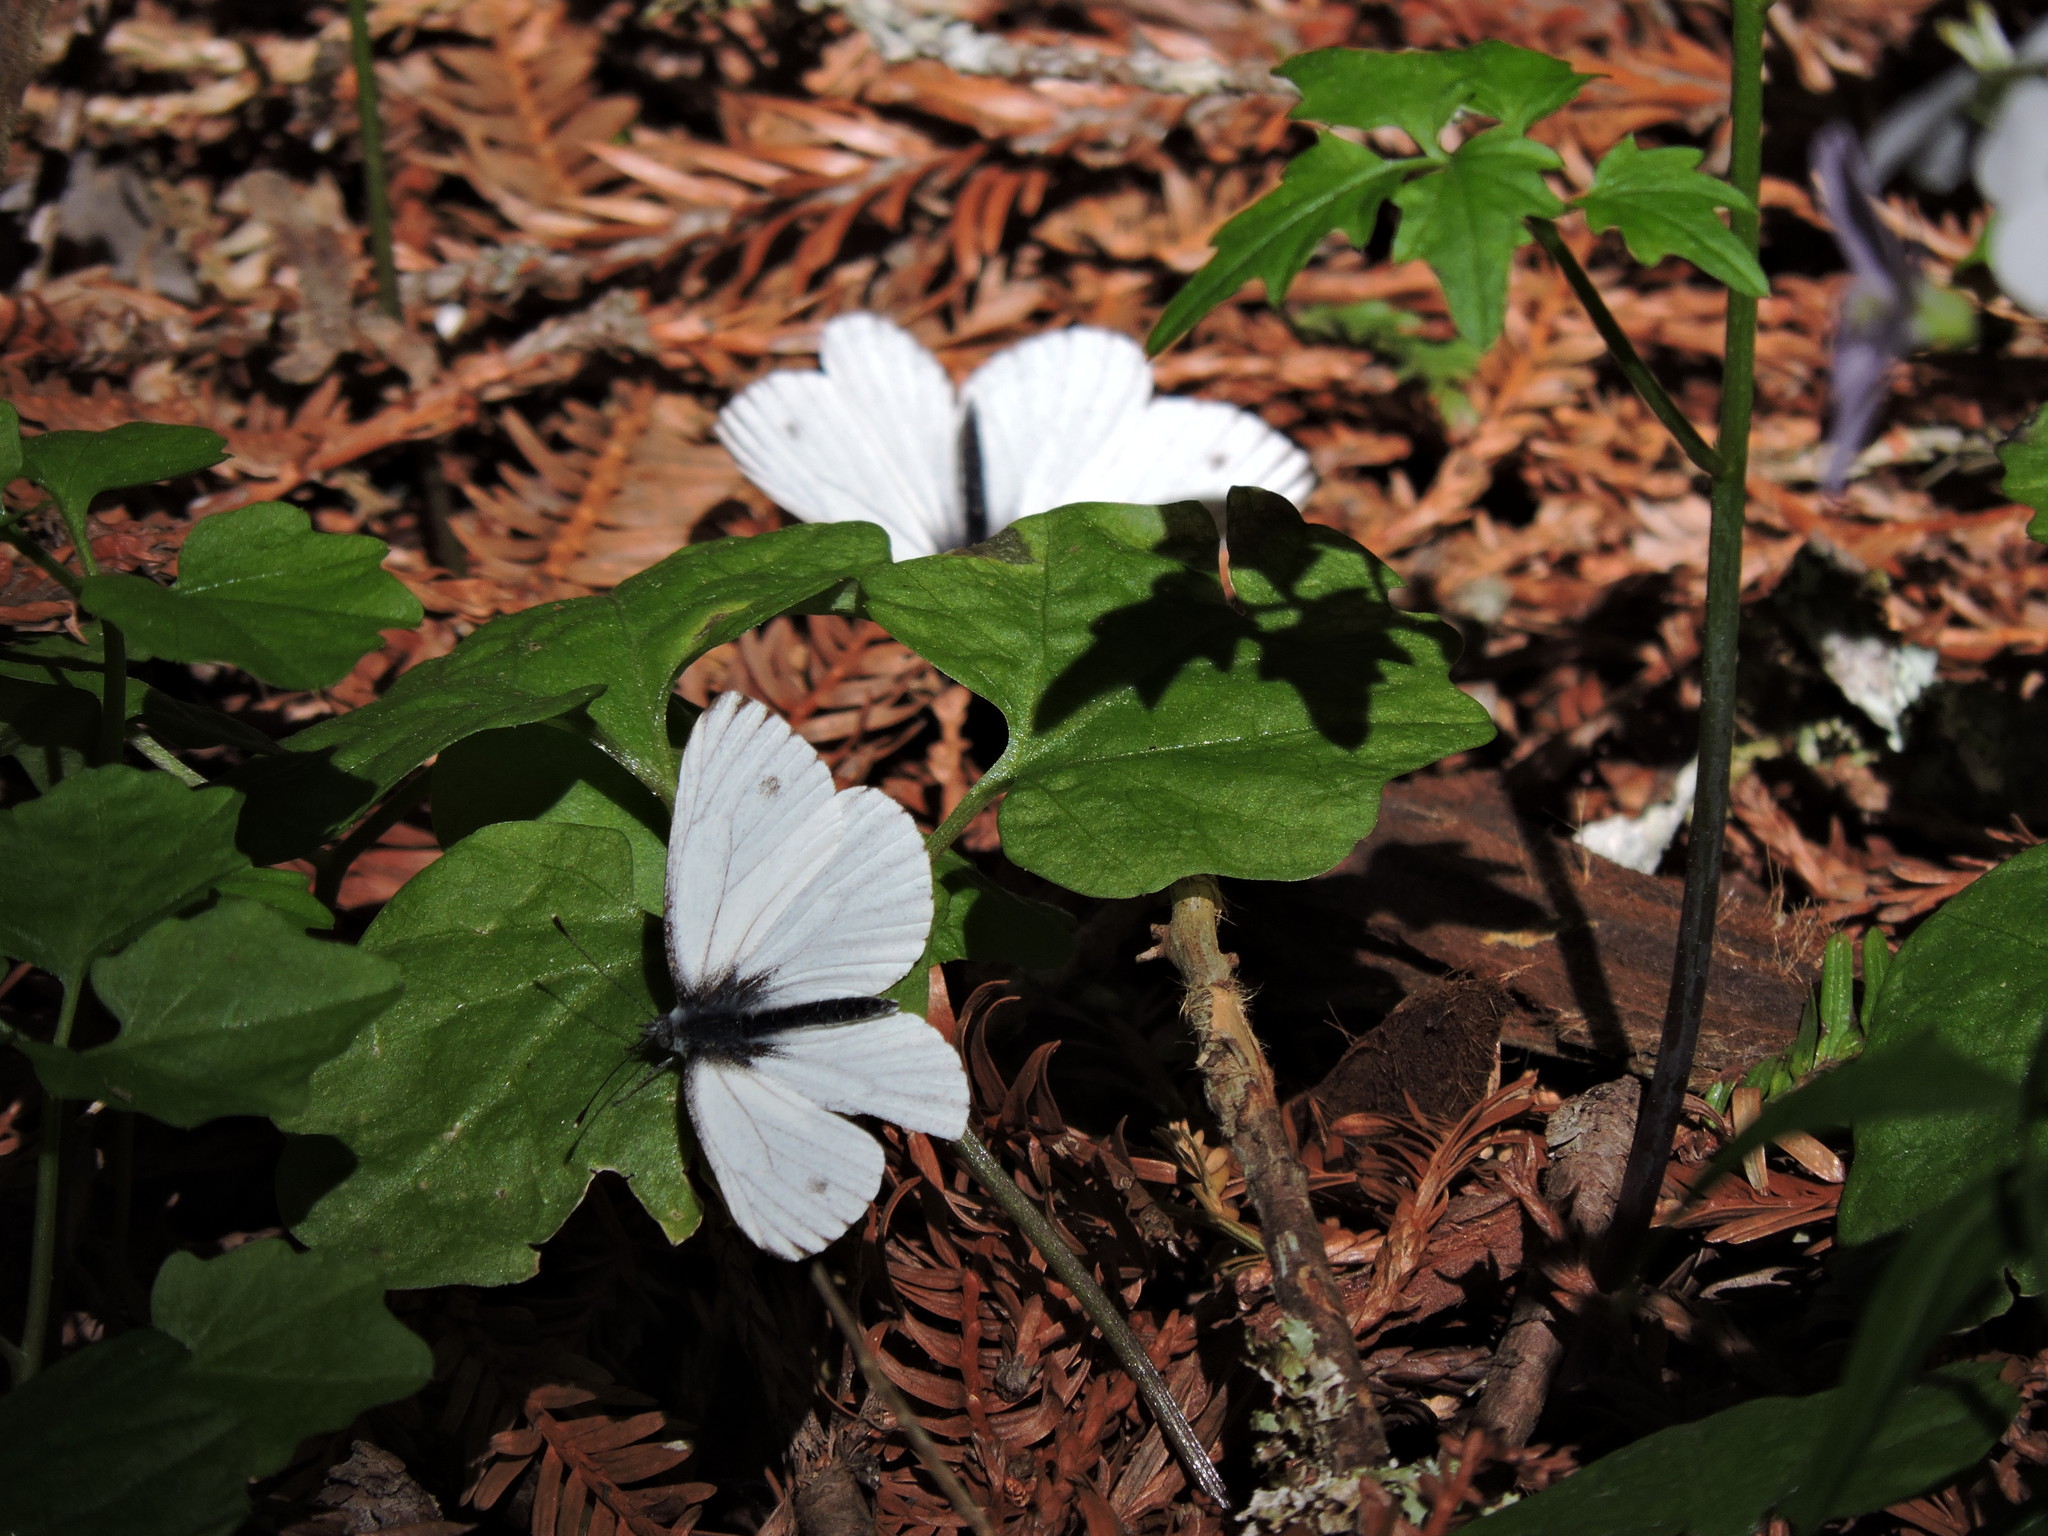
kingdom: Animalia
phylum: Arthropoda
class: Insecta
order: Lepidoptera
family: Pieridae
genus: Pieris
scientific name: Pieris marginalis
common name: Margined white
